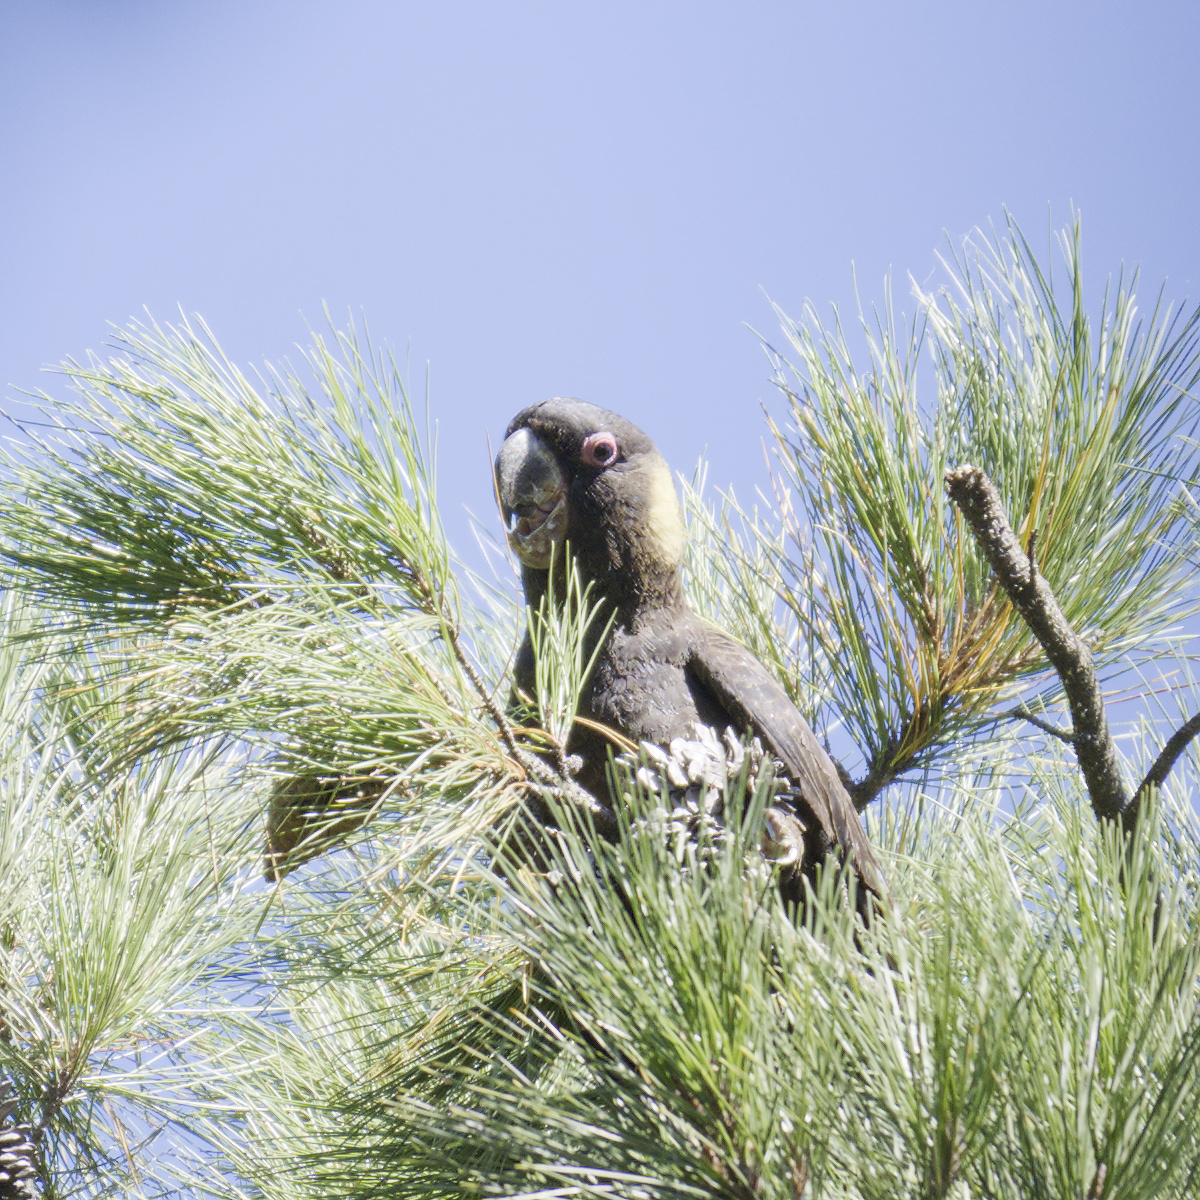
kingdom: Animalia
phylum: Chordata
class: Aves
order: Psittaciformes
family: Cacatuidae
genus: Zanda
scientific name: Zanda funerea
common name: Yellow-tailed black-cockatoo
